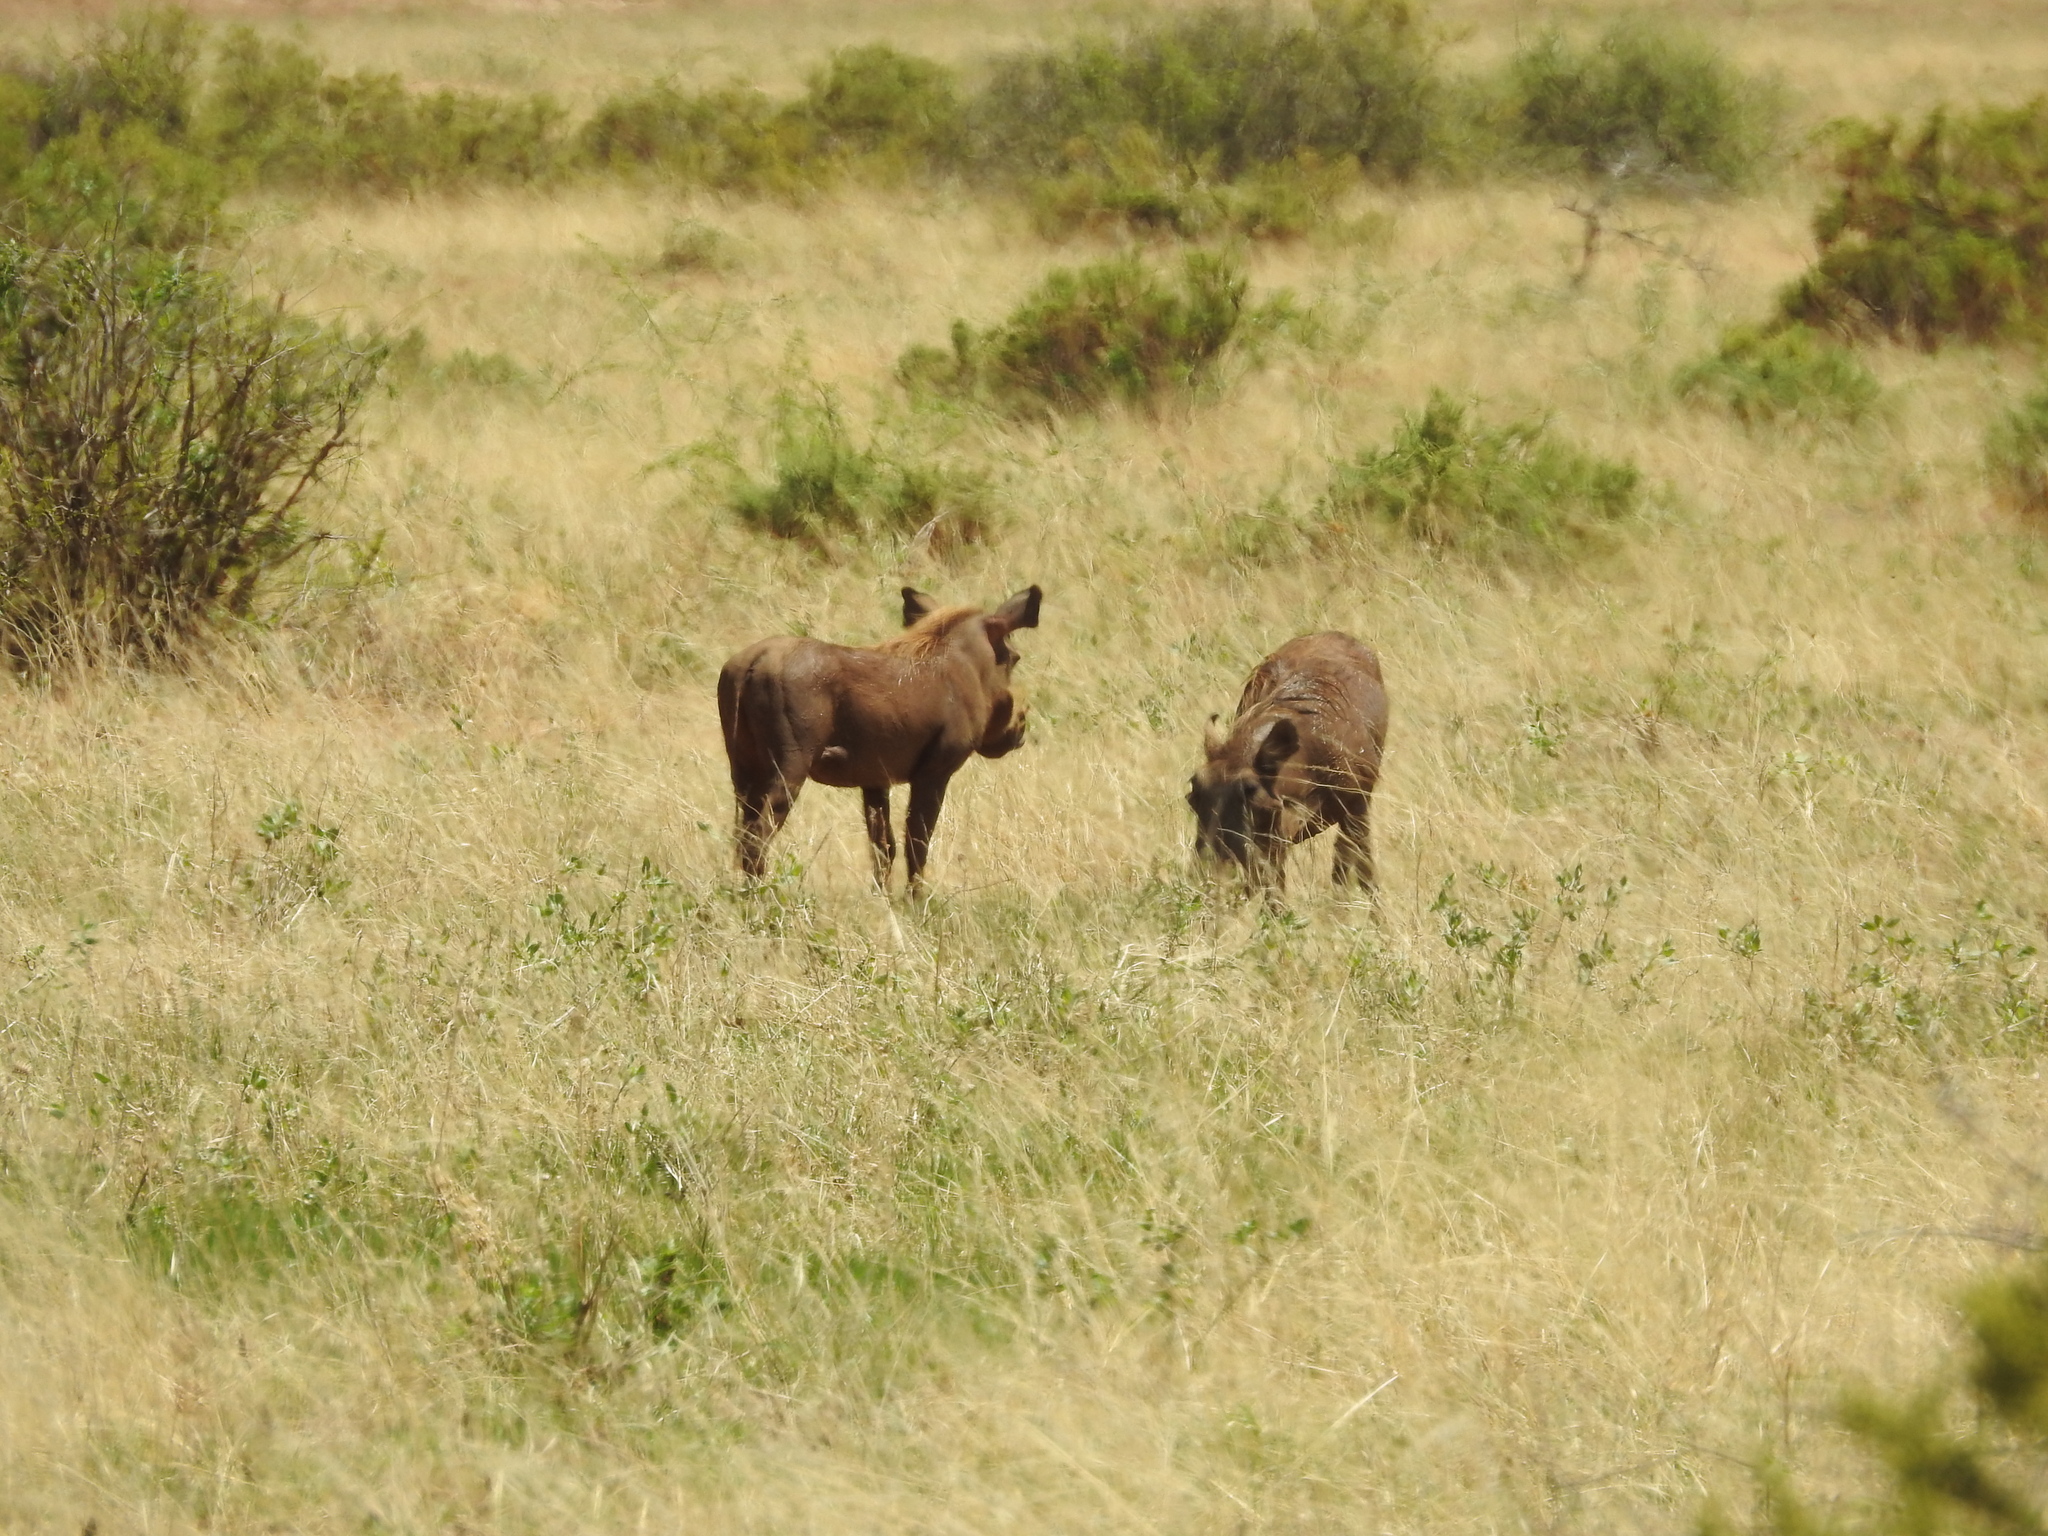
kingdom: Animalia
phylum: Chordata
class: Mammalia
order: Artiodactyla
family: Suidae
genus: Phacochoerus
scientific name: Phacochoerus aethiopicus
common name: Desert warthog
